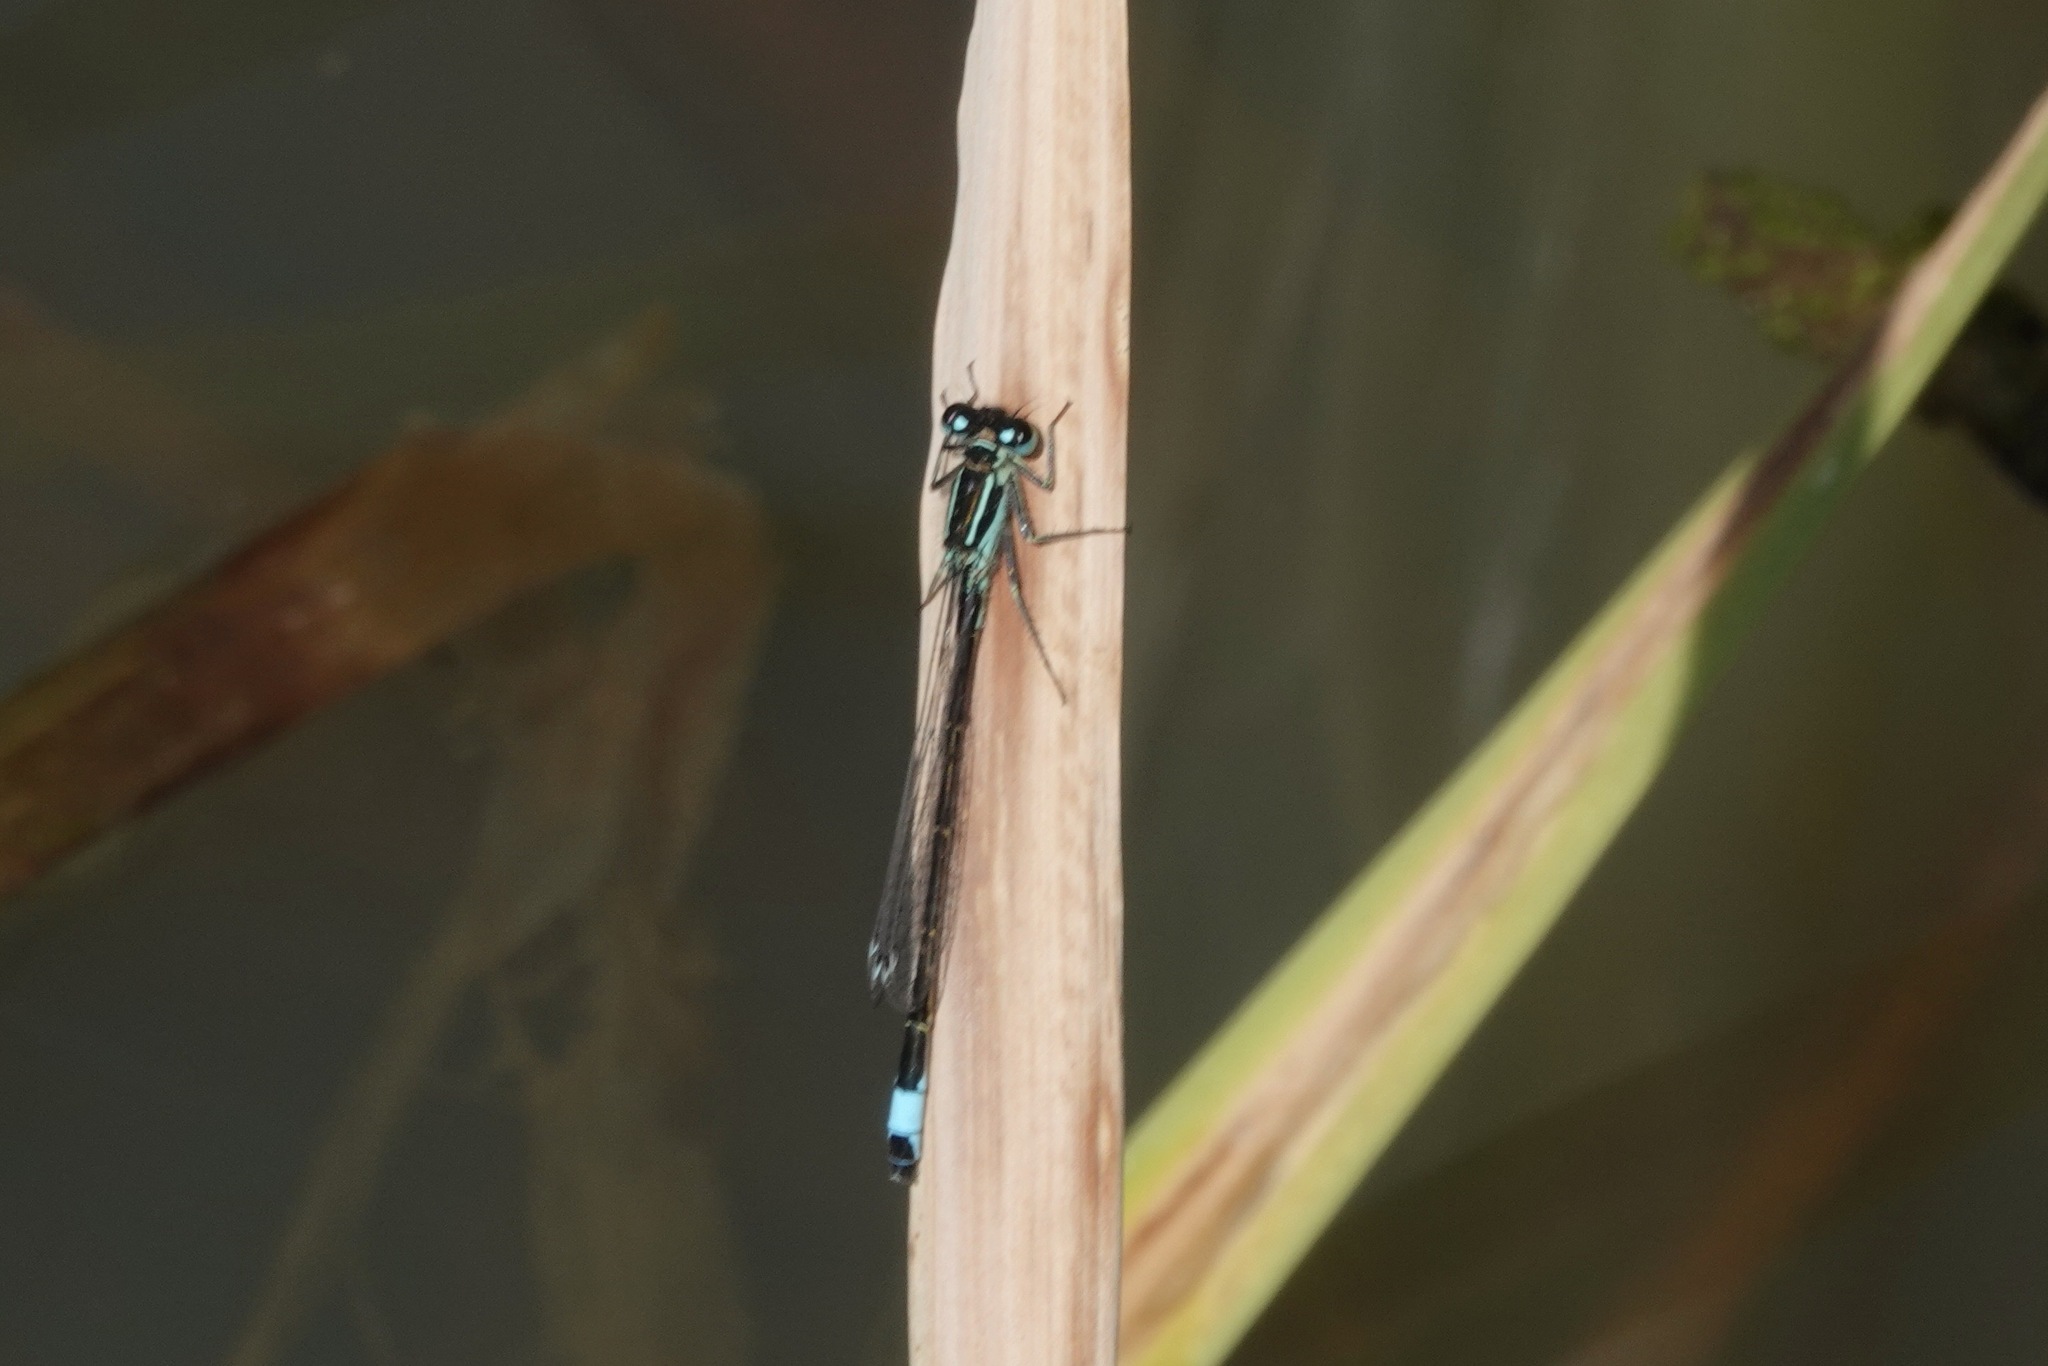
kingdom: Animalia
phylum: Arthropoda
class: Insecta
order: Odonata
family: Coenagrionidae
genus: Ischnura
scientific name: Ischnura elegans
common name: Blue-tailed damselfly
